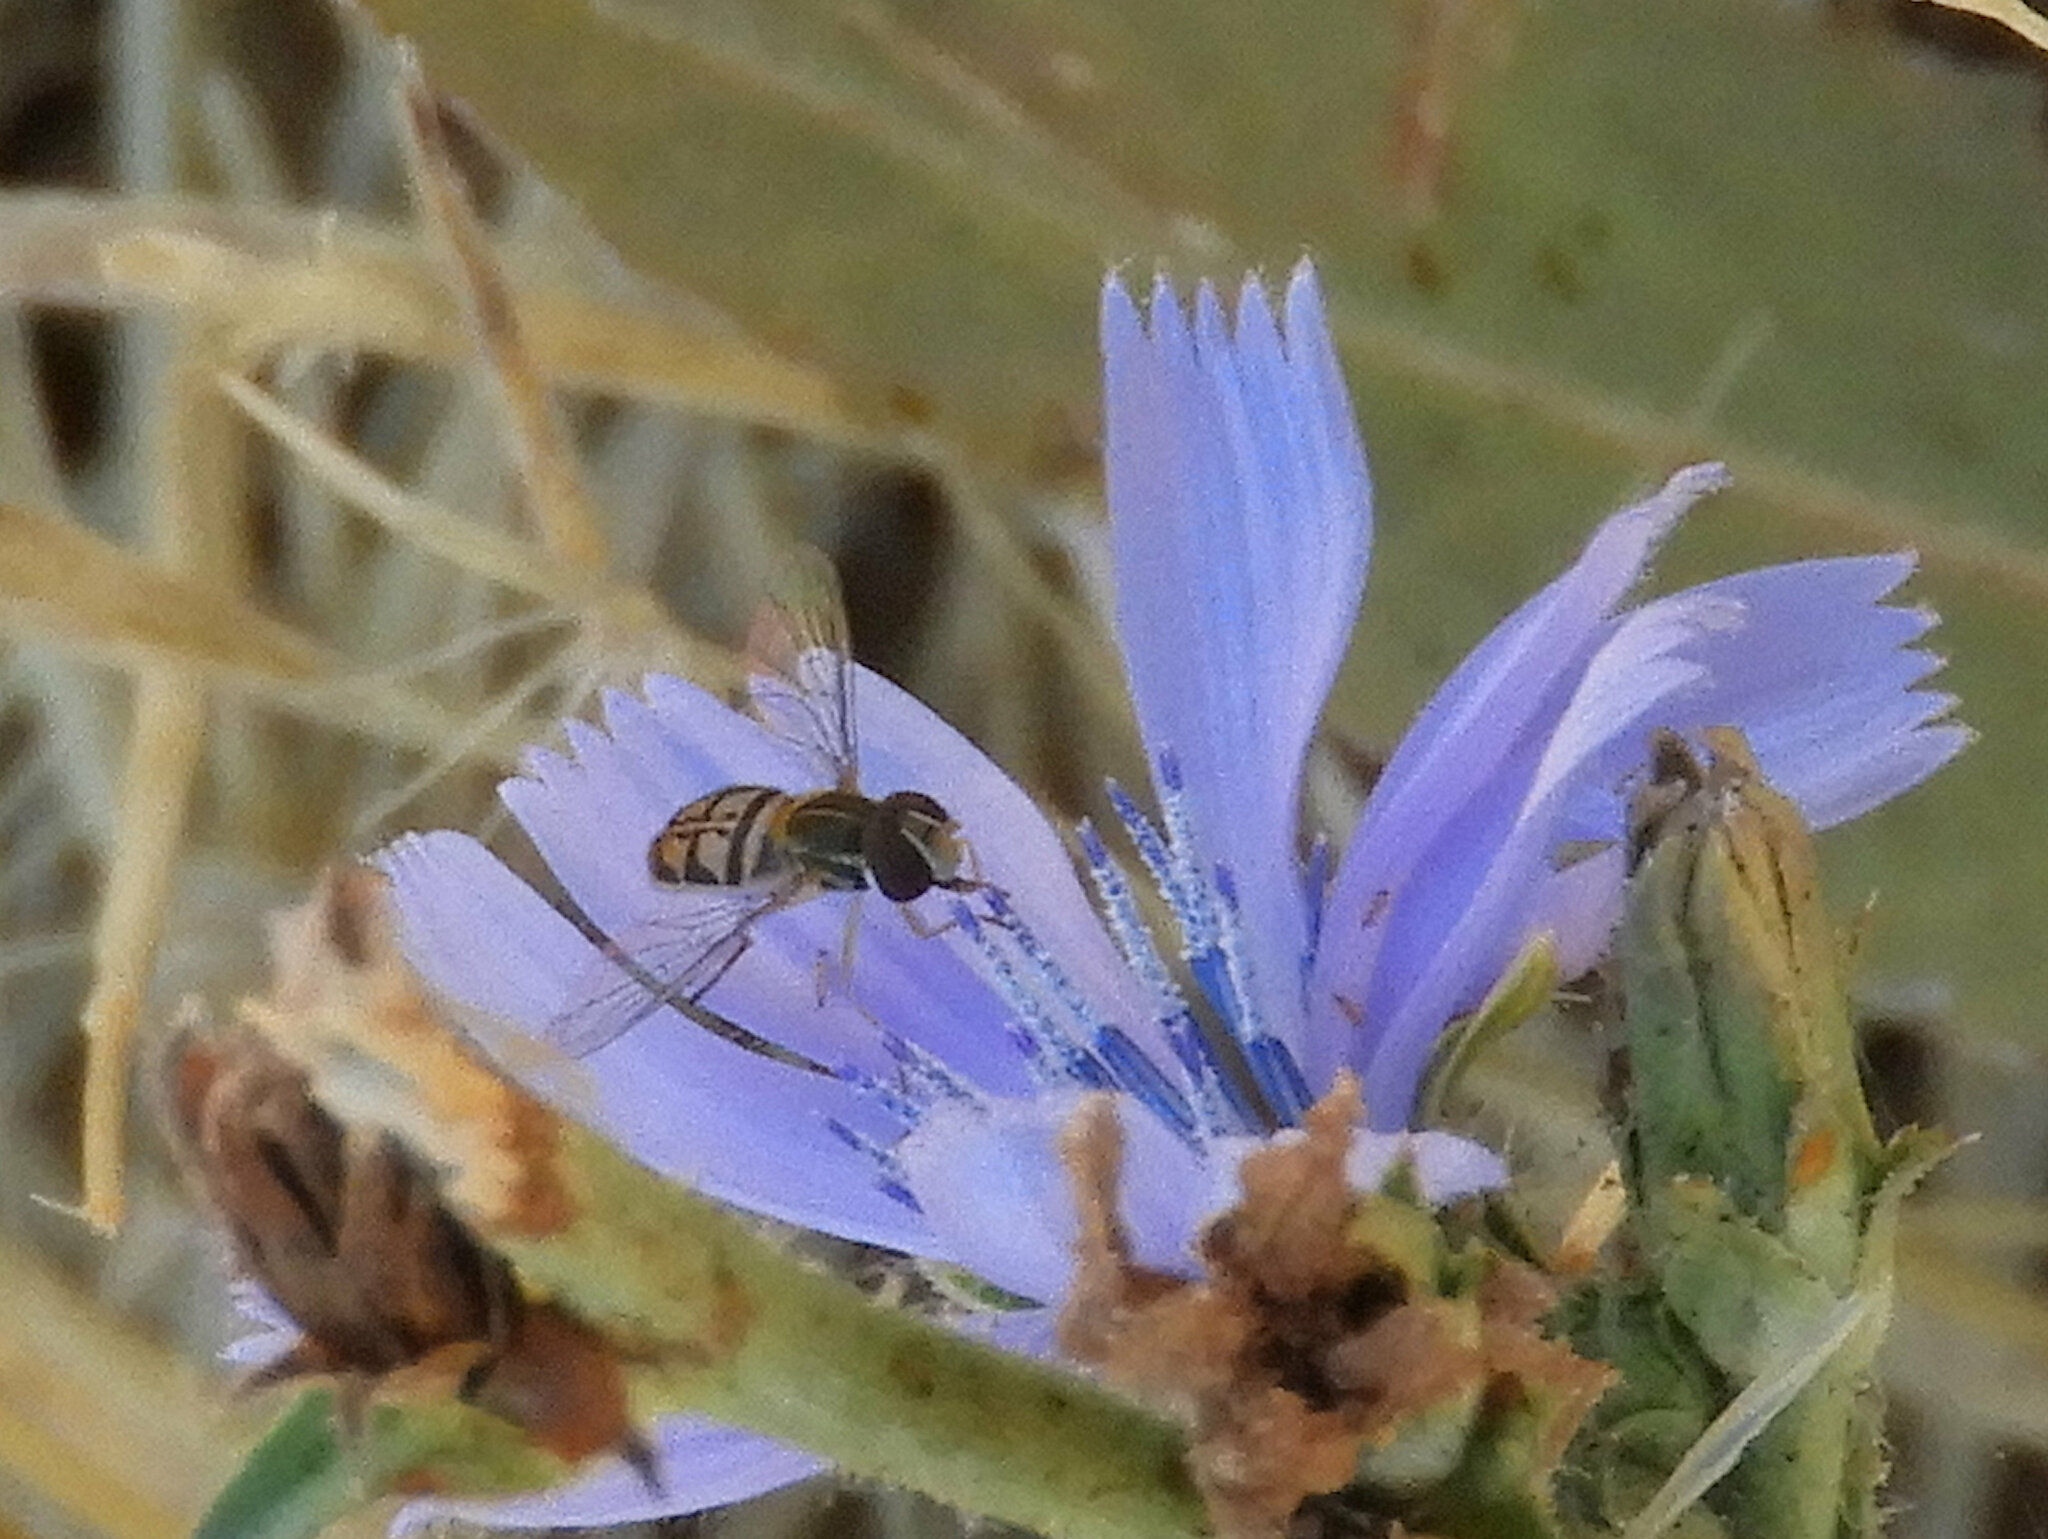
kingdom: Animalia
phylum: Arthropoda
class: Insecta
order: Diptera
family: Syrphidae
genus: Toxomerus
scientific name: Toxomerus marginatus
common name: Syrphid fly
